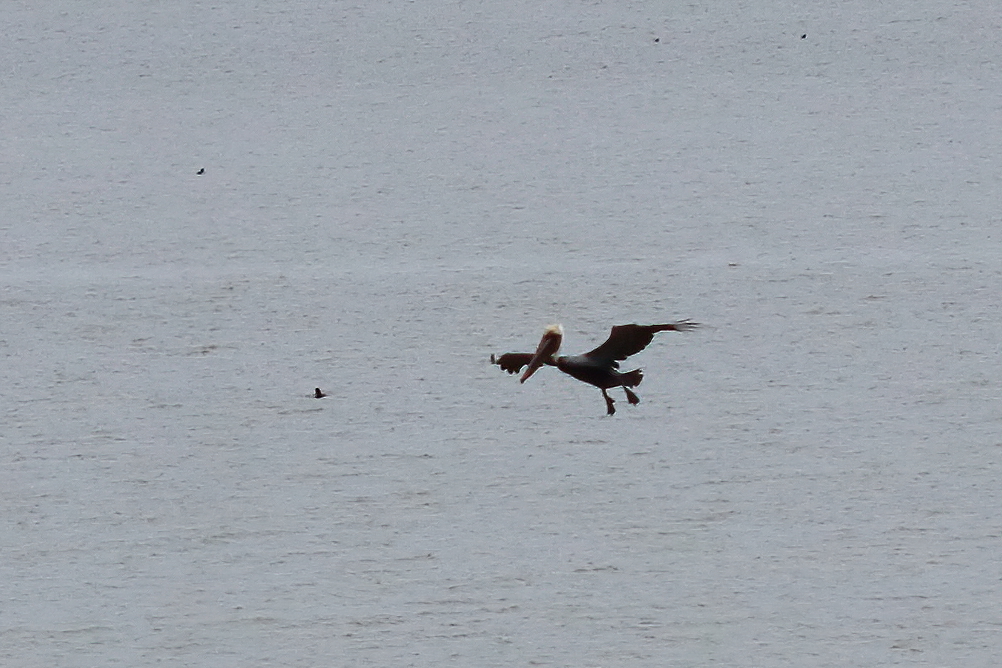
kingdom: Animalia
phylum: Chordata
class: Aves
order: Pelecaniformes
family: Pelecanidae
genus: Pelecanus
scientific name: Pelecanus occidentalis
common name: Brown pelican
